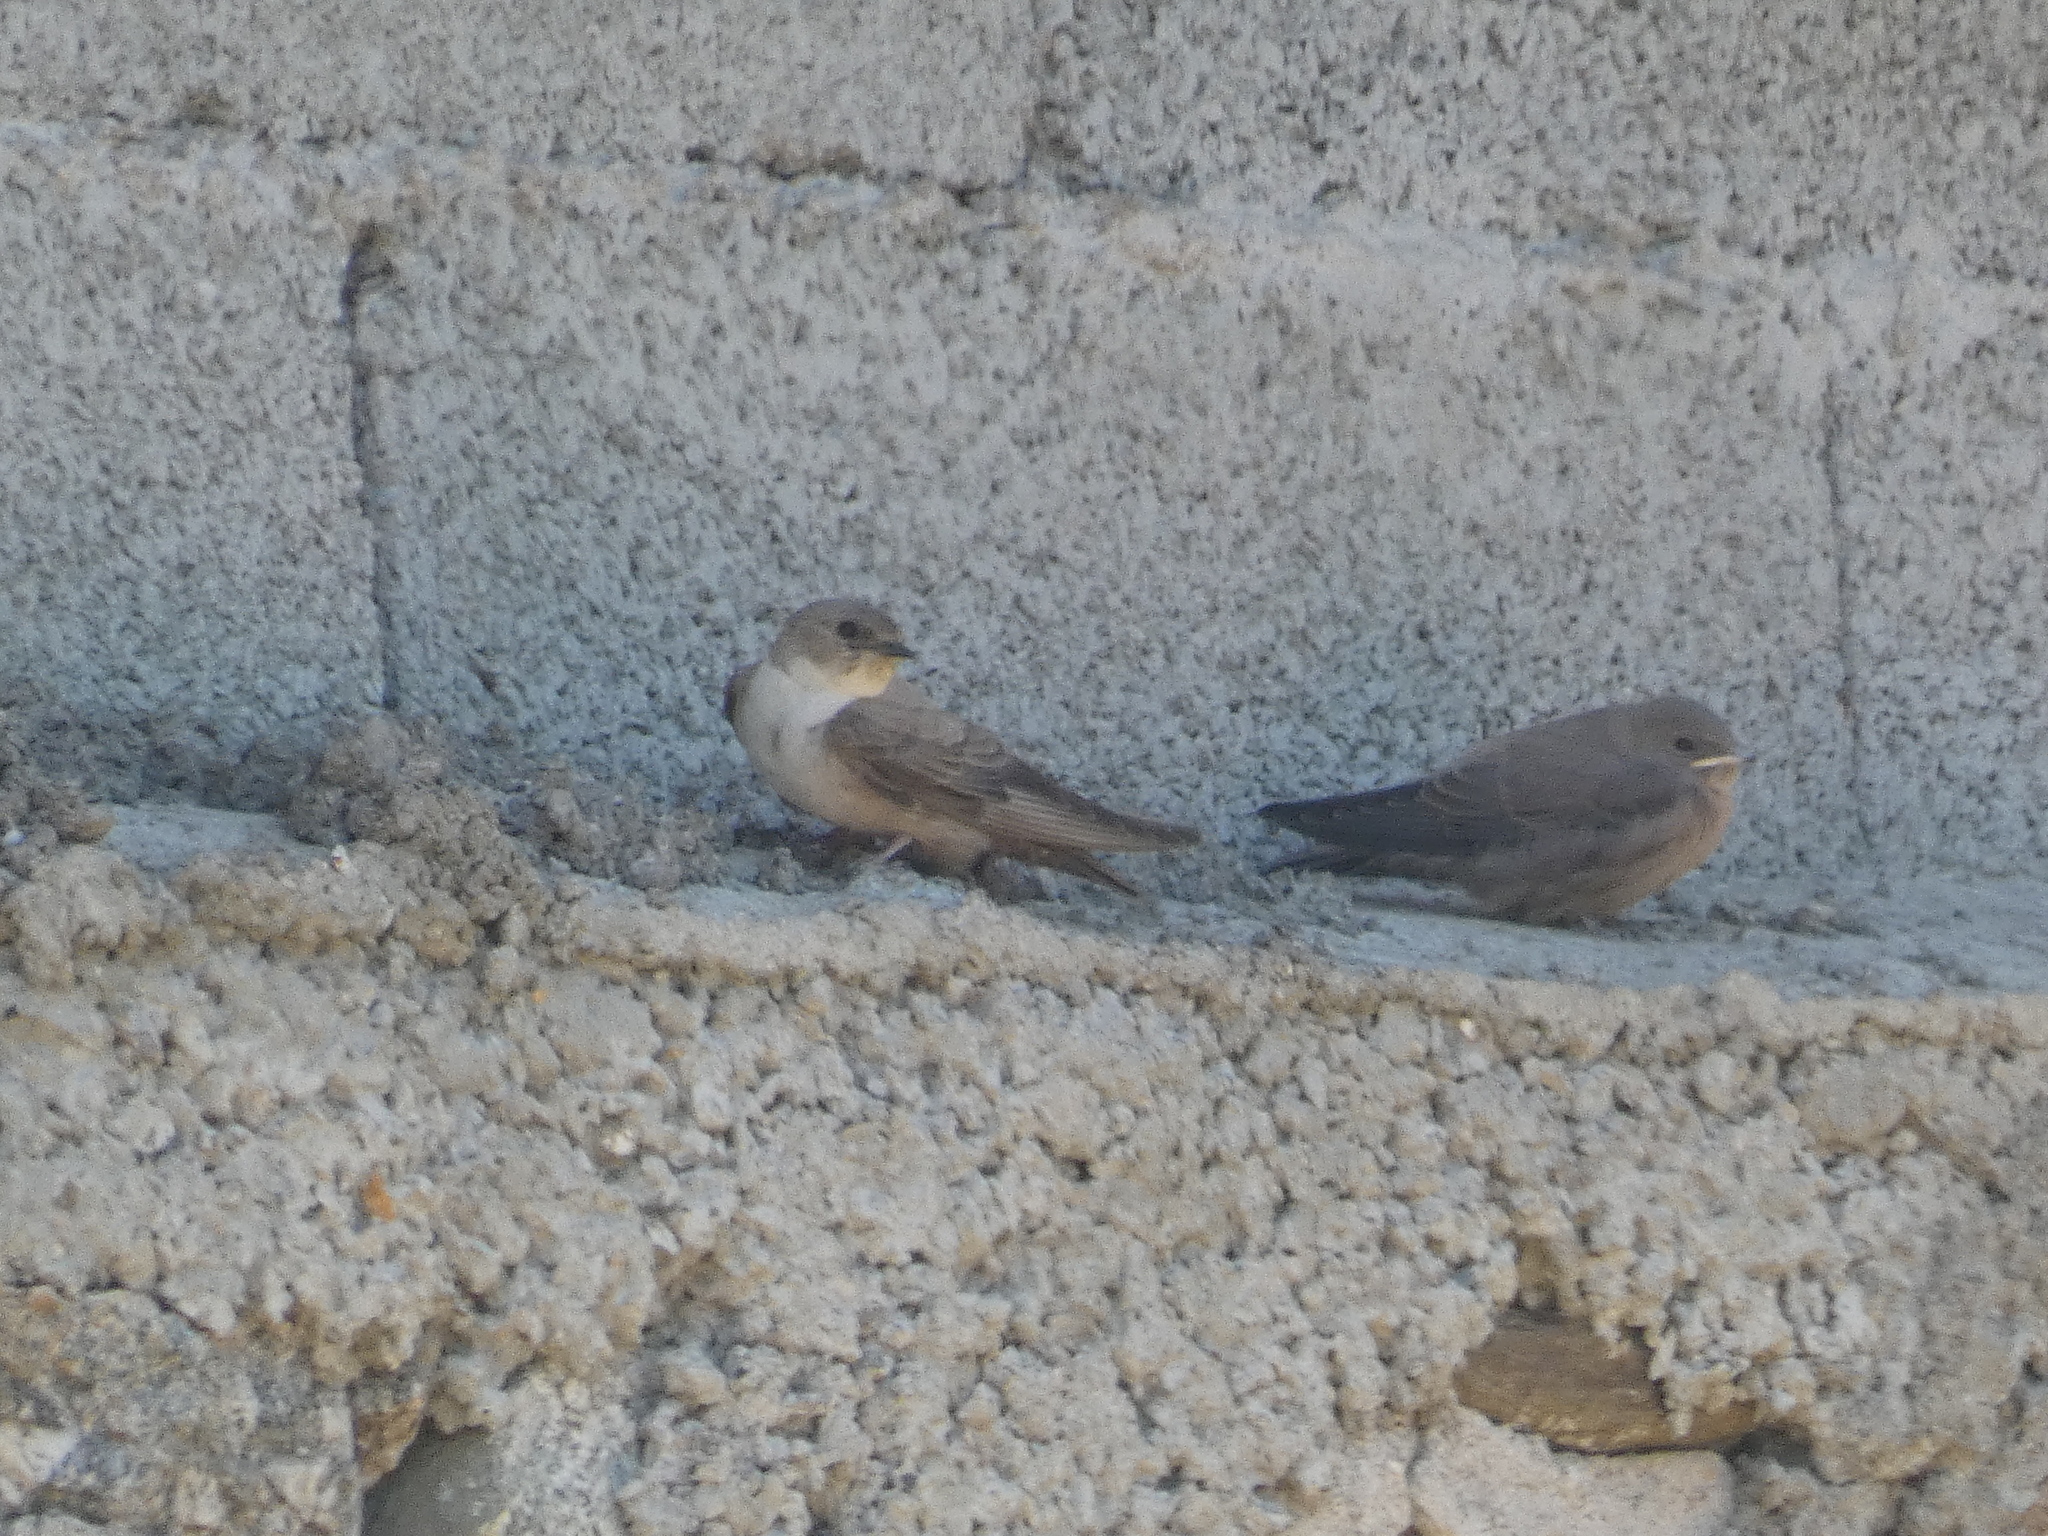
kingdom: Animalia
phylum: Chordata
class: Aves
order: Passeriformes
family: Hirundinidae
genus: Ptyonoprogne
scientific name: Ptyonoprogne rupestris
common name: Eurasian crag martin
